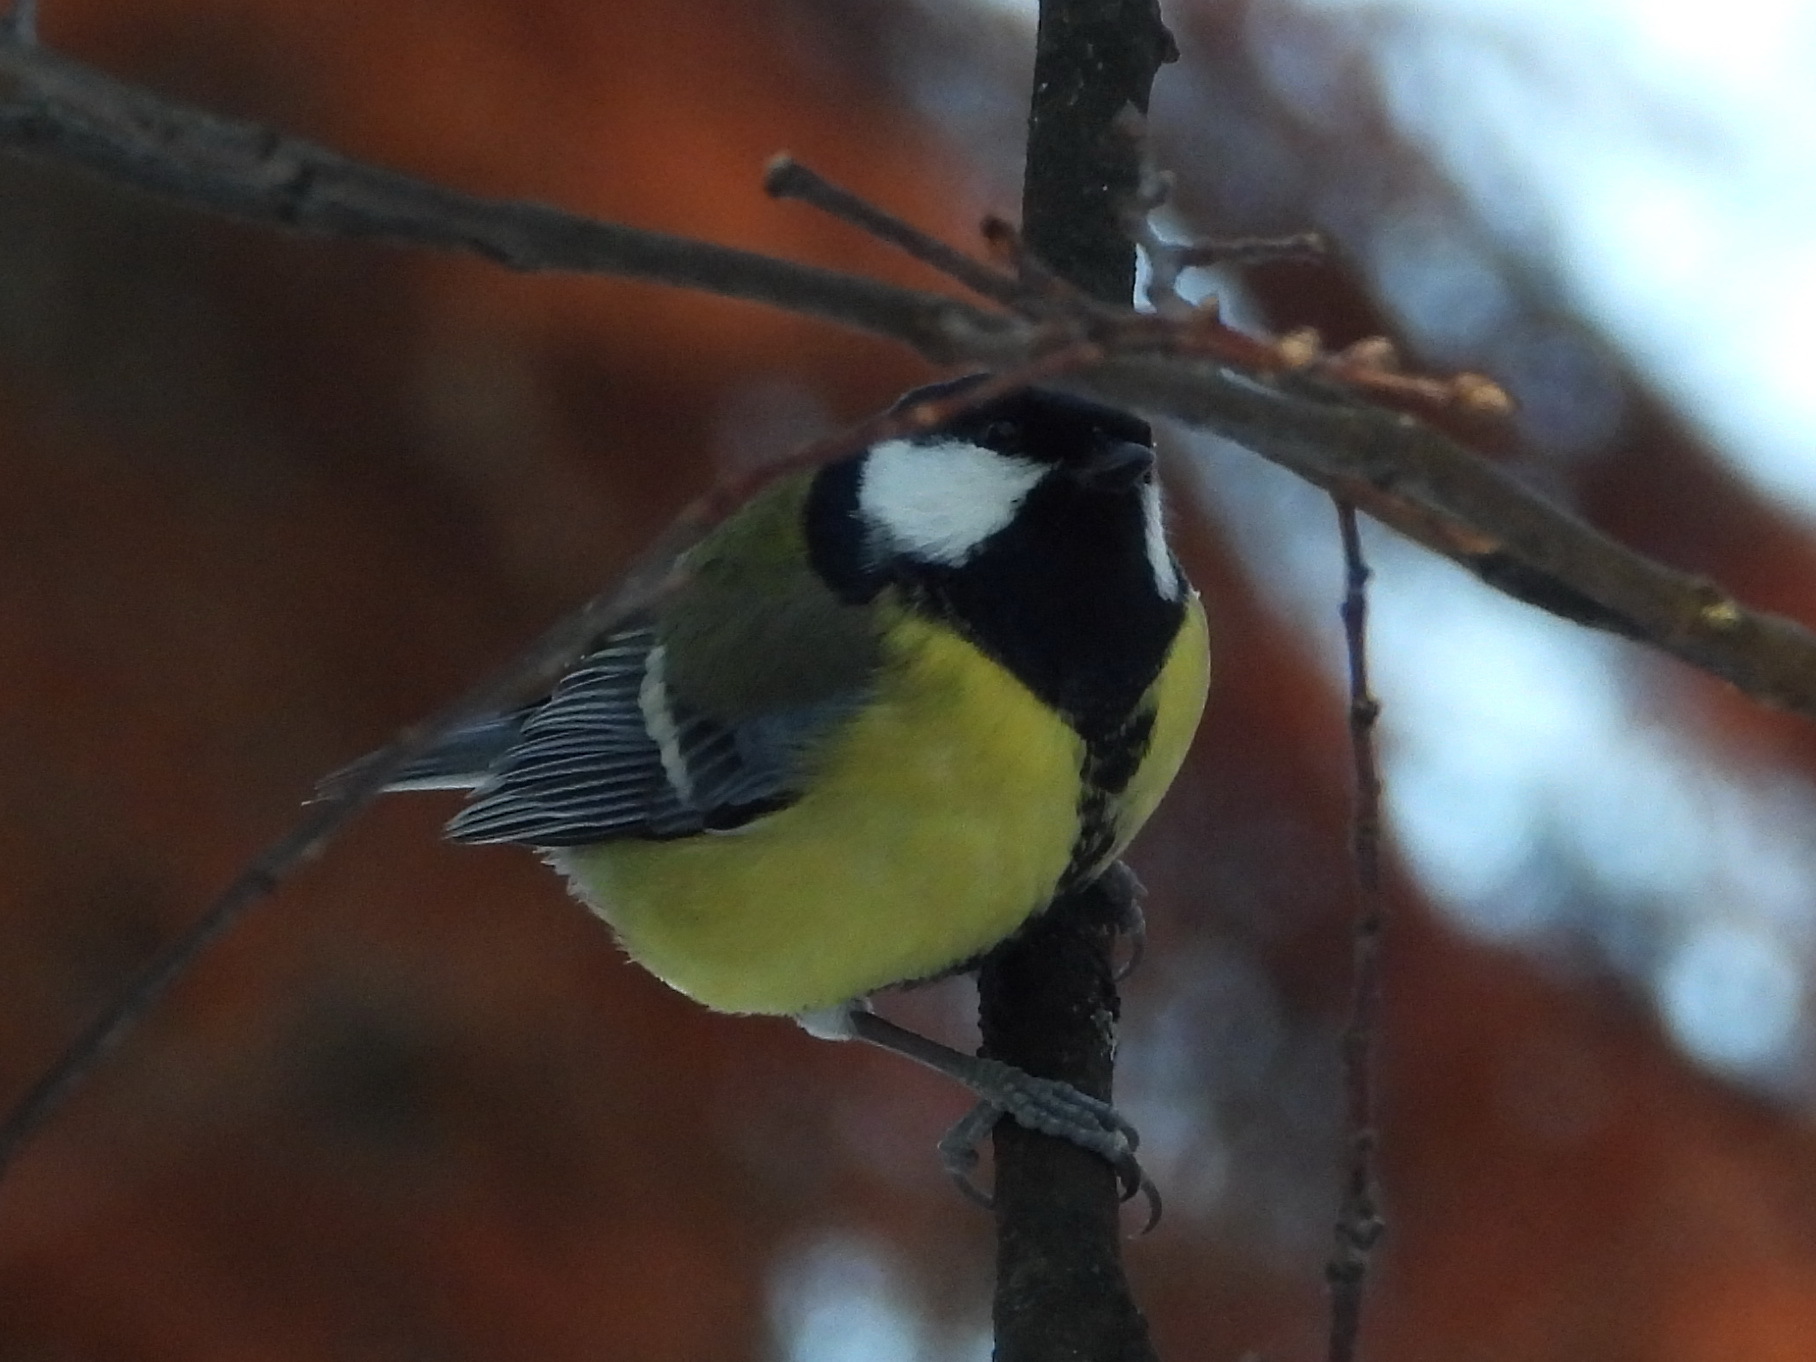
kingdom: Animalia
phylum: Chordata
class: Aves
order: Passeriformes
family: Paridae
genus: Parus
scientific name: Parus major
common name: Great tit
